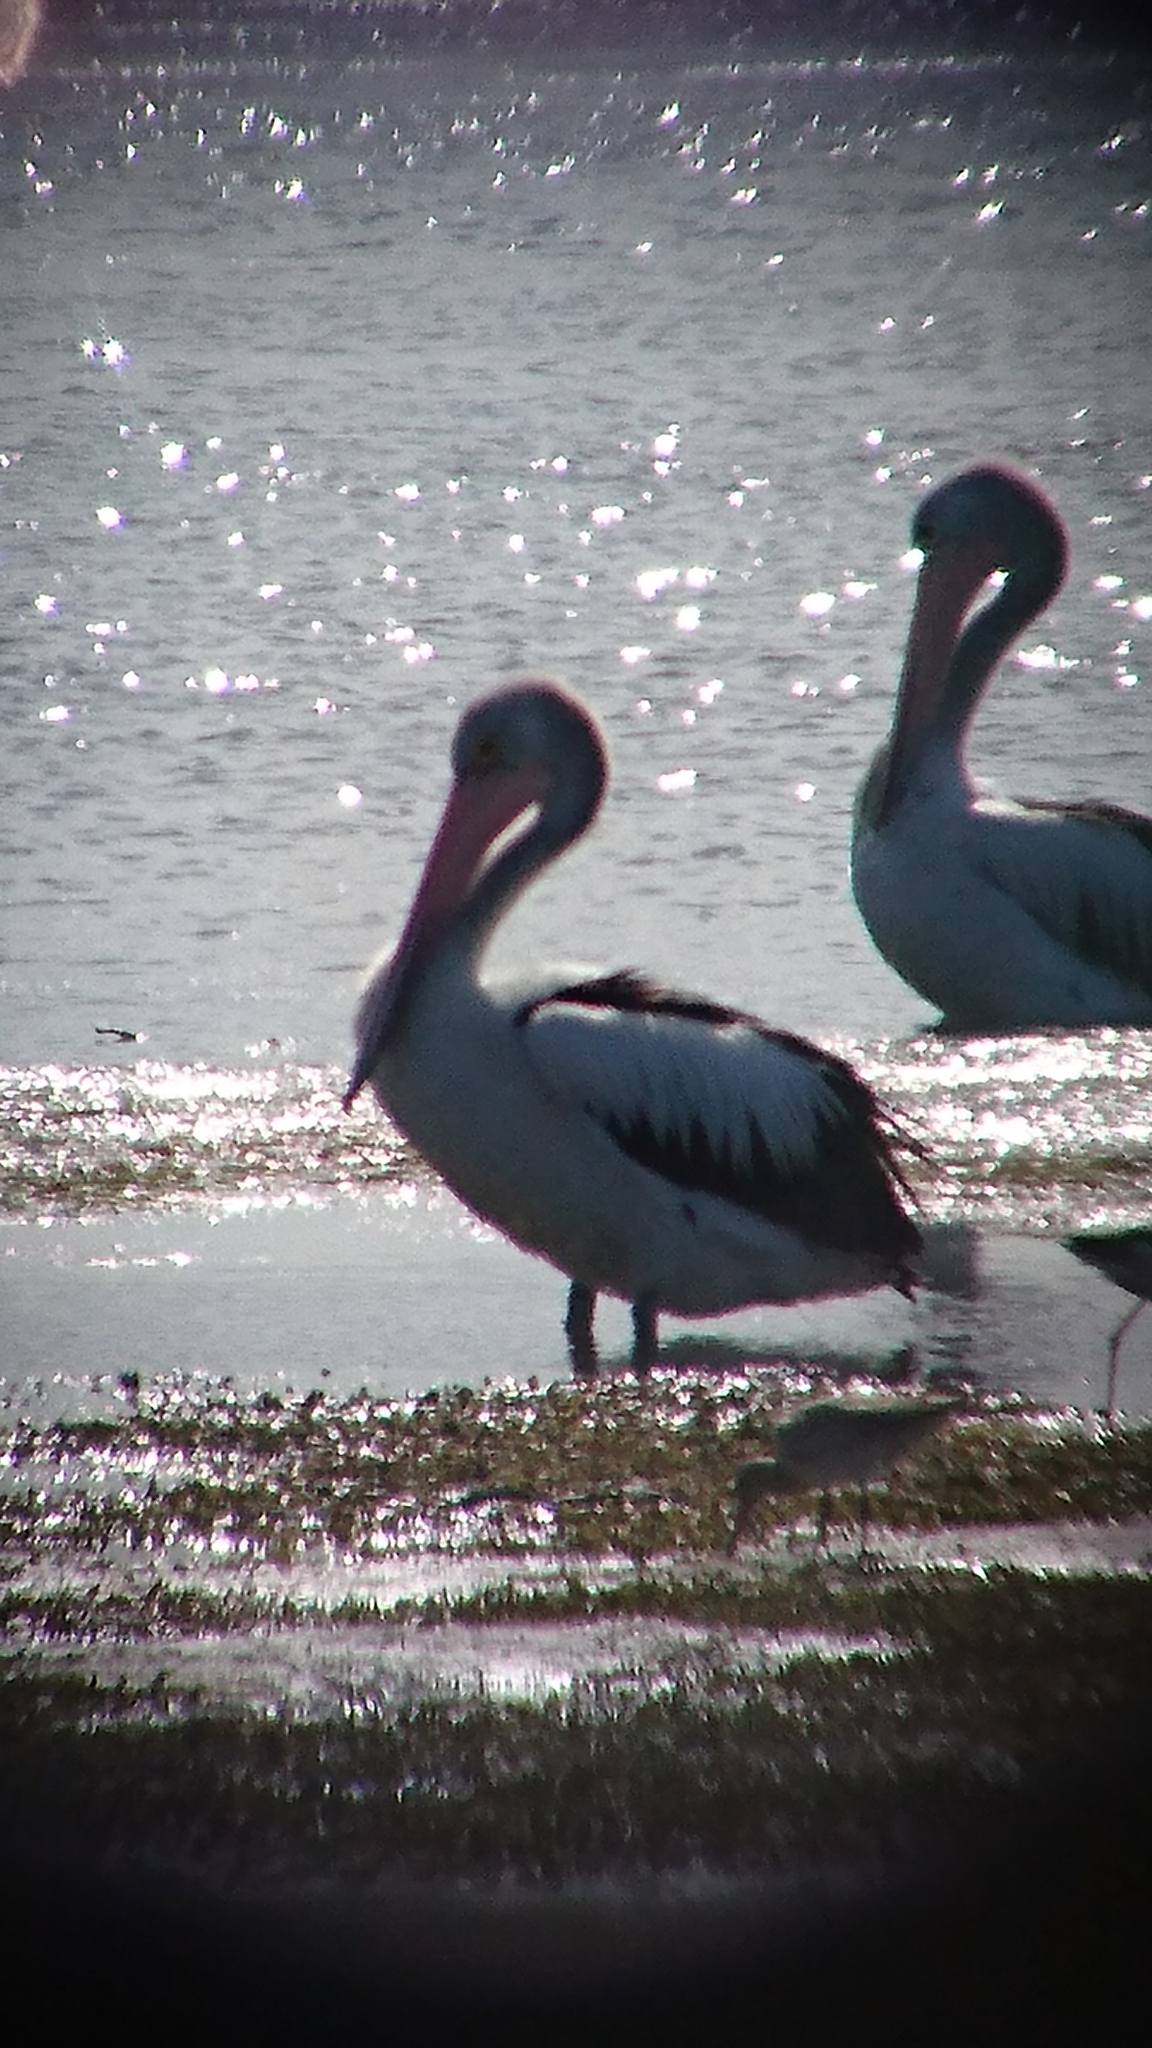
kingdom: Animalia
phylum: Chordata
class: Aves
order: Pelecaniformes
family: Pelecanidae
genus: Pelecanus
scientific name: Pelecanus conspicillatus
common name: Australian pelican
